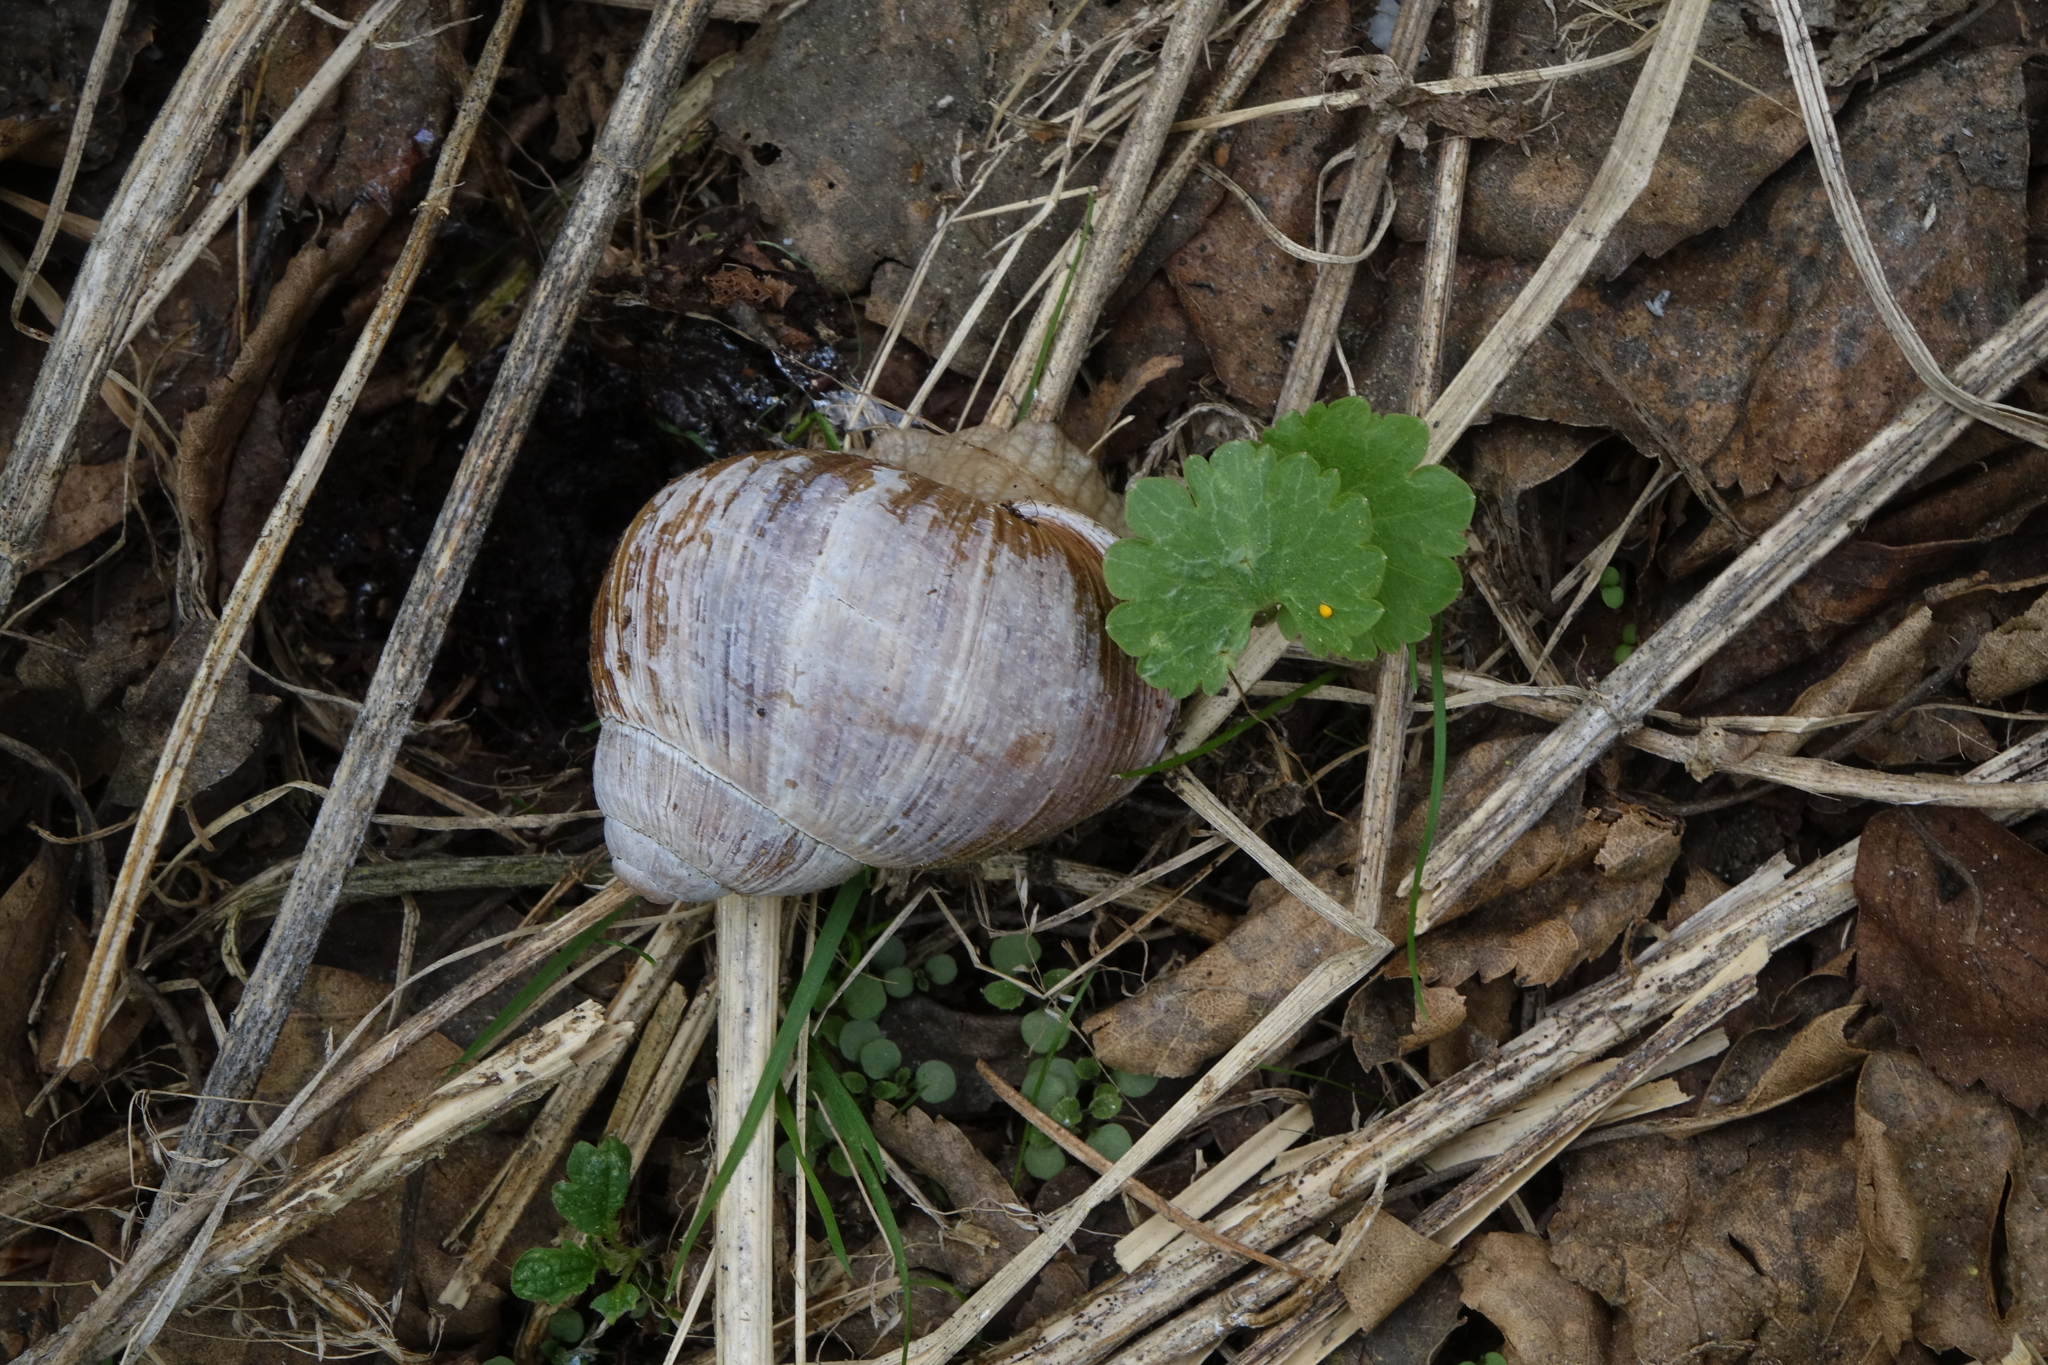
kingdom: Animalia
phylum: Mollusca
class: Gastropoda
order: Stylommatophora
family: Helicidae
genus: Helix
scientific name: Helix pomatia
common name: Roman snail
